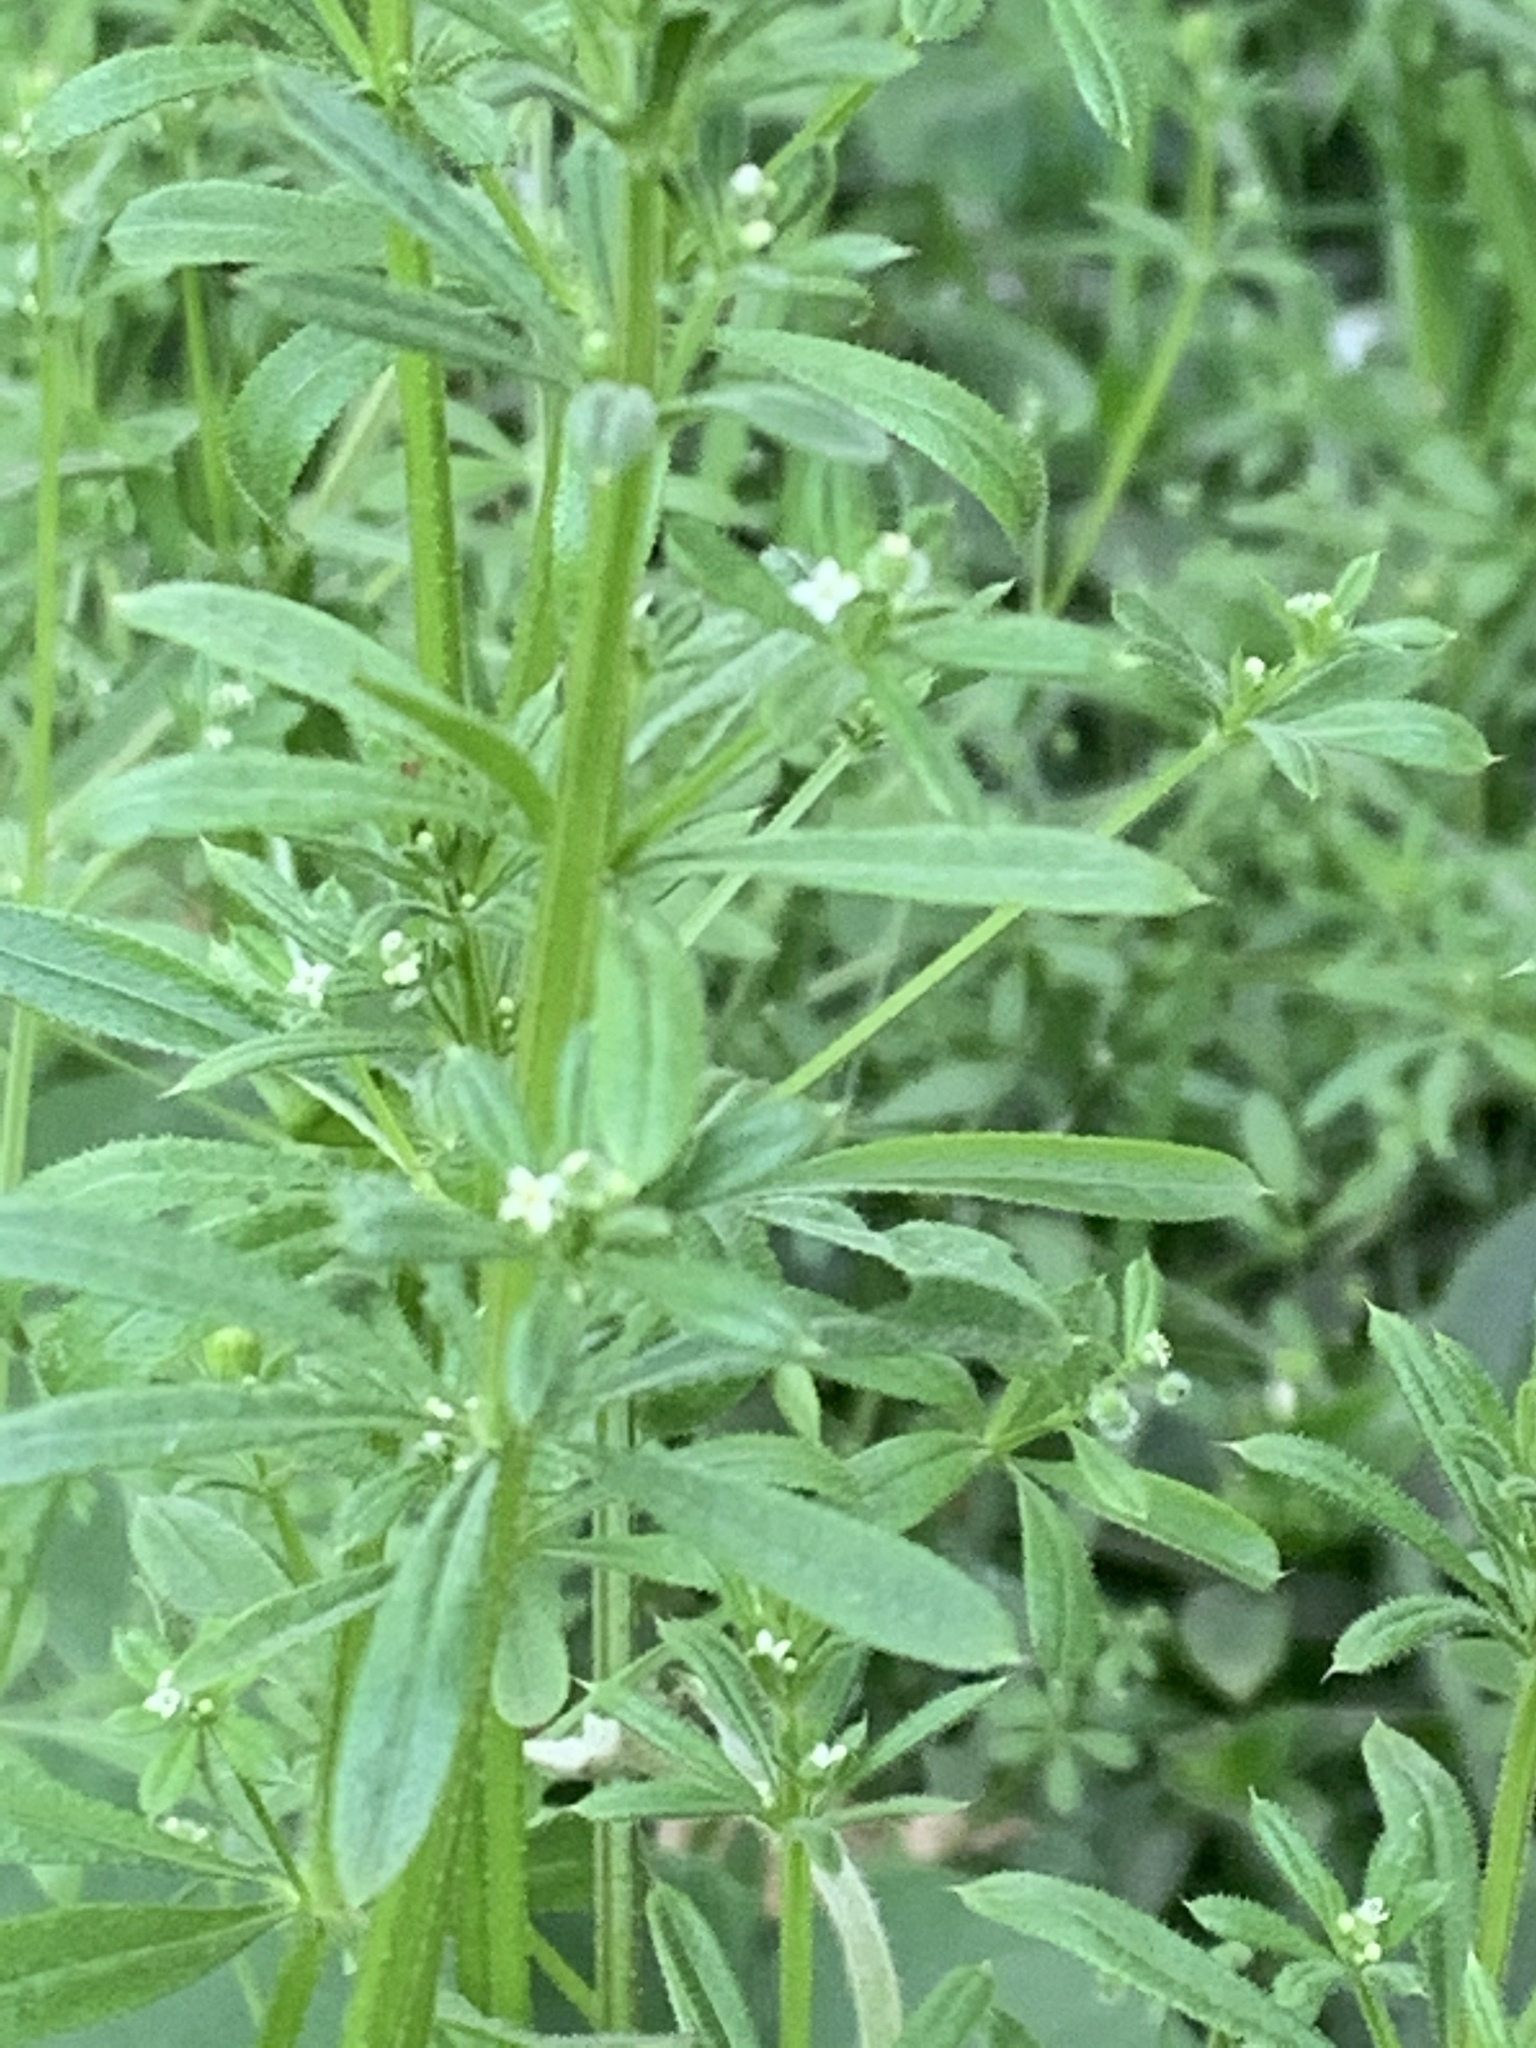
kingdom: Plantae
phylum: Tracheophyta
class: Magnoliopsida
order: Gentianales
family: Rubiaceae
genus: Galium
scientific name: Galium aparine
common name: Cleavers
